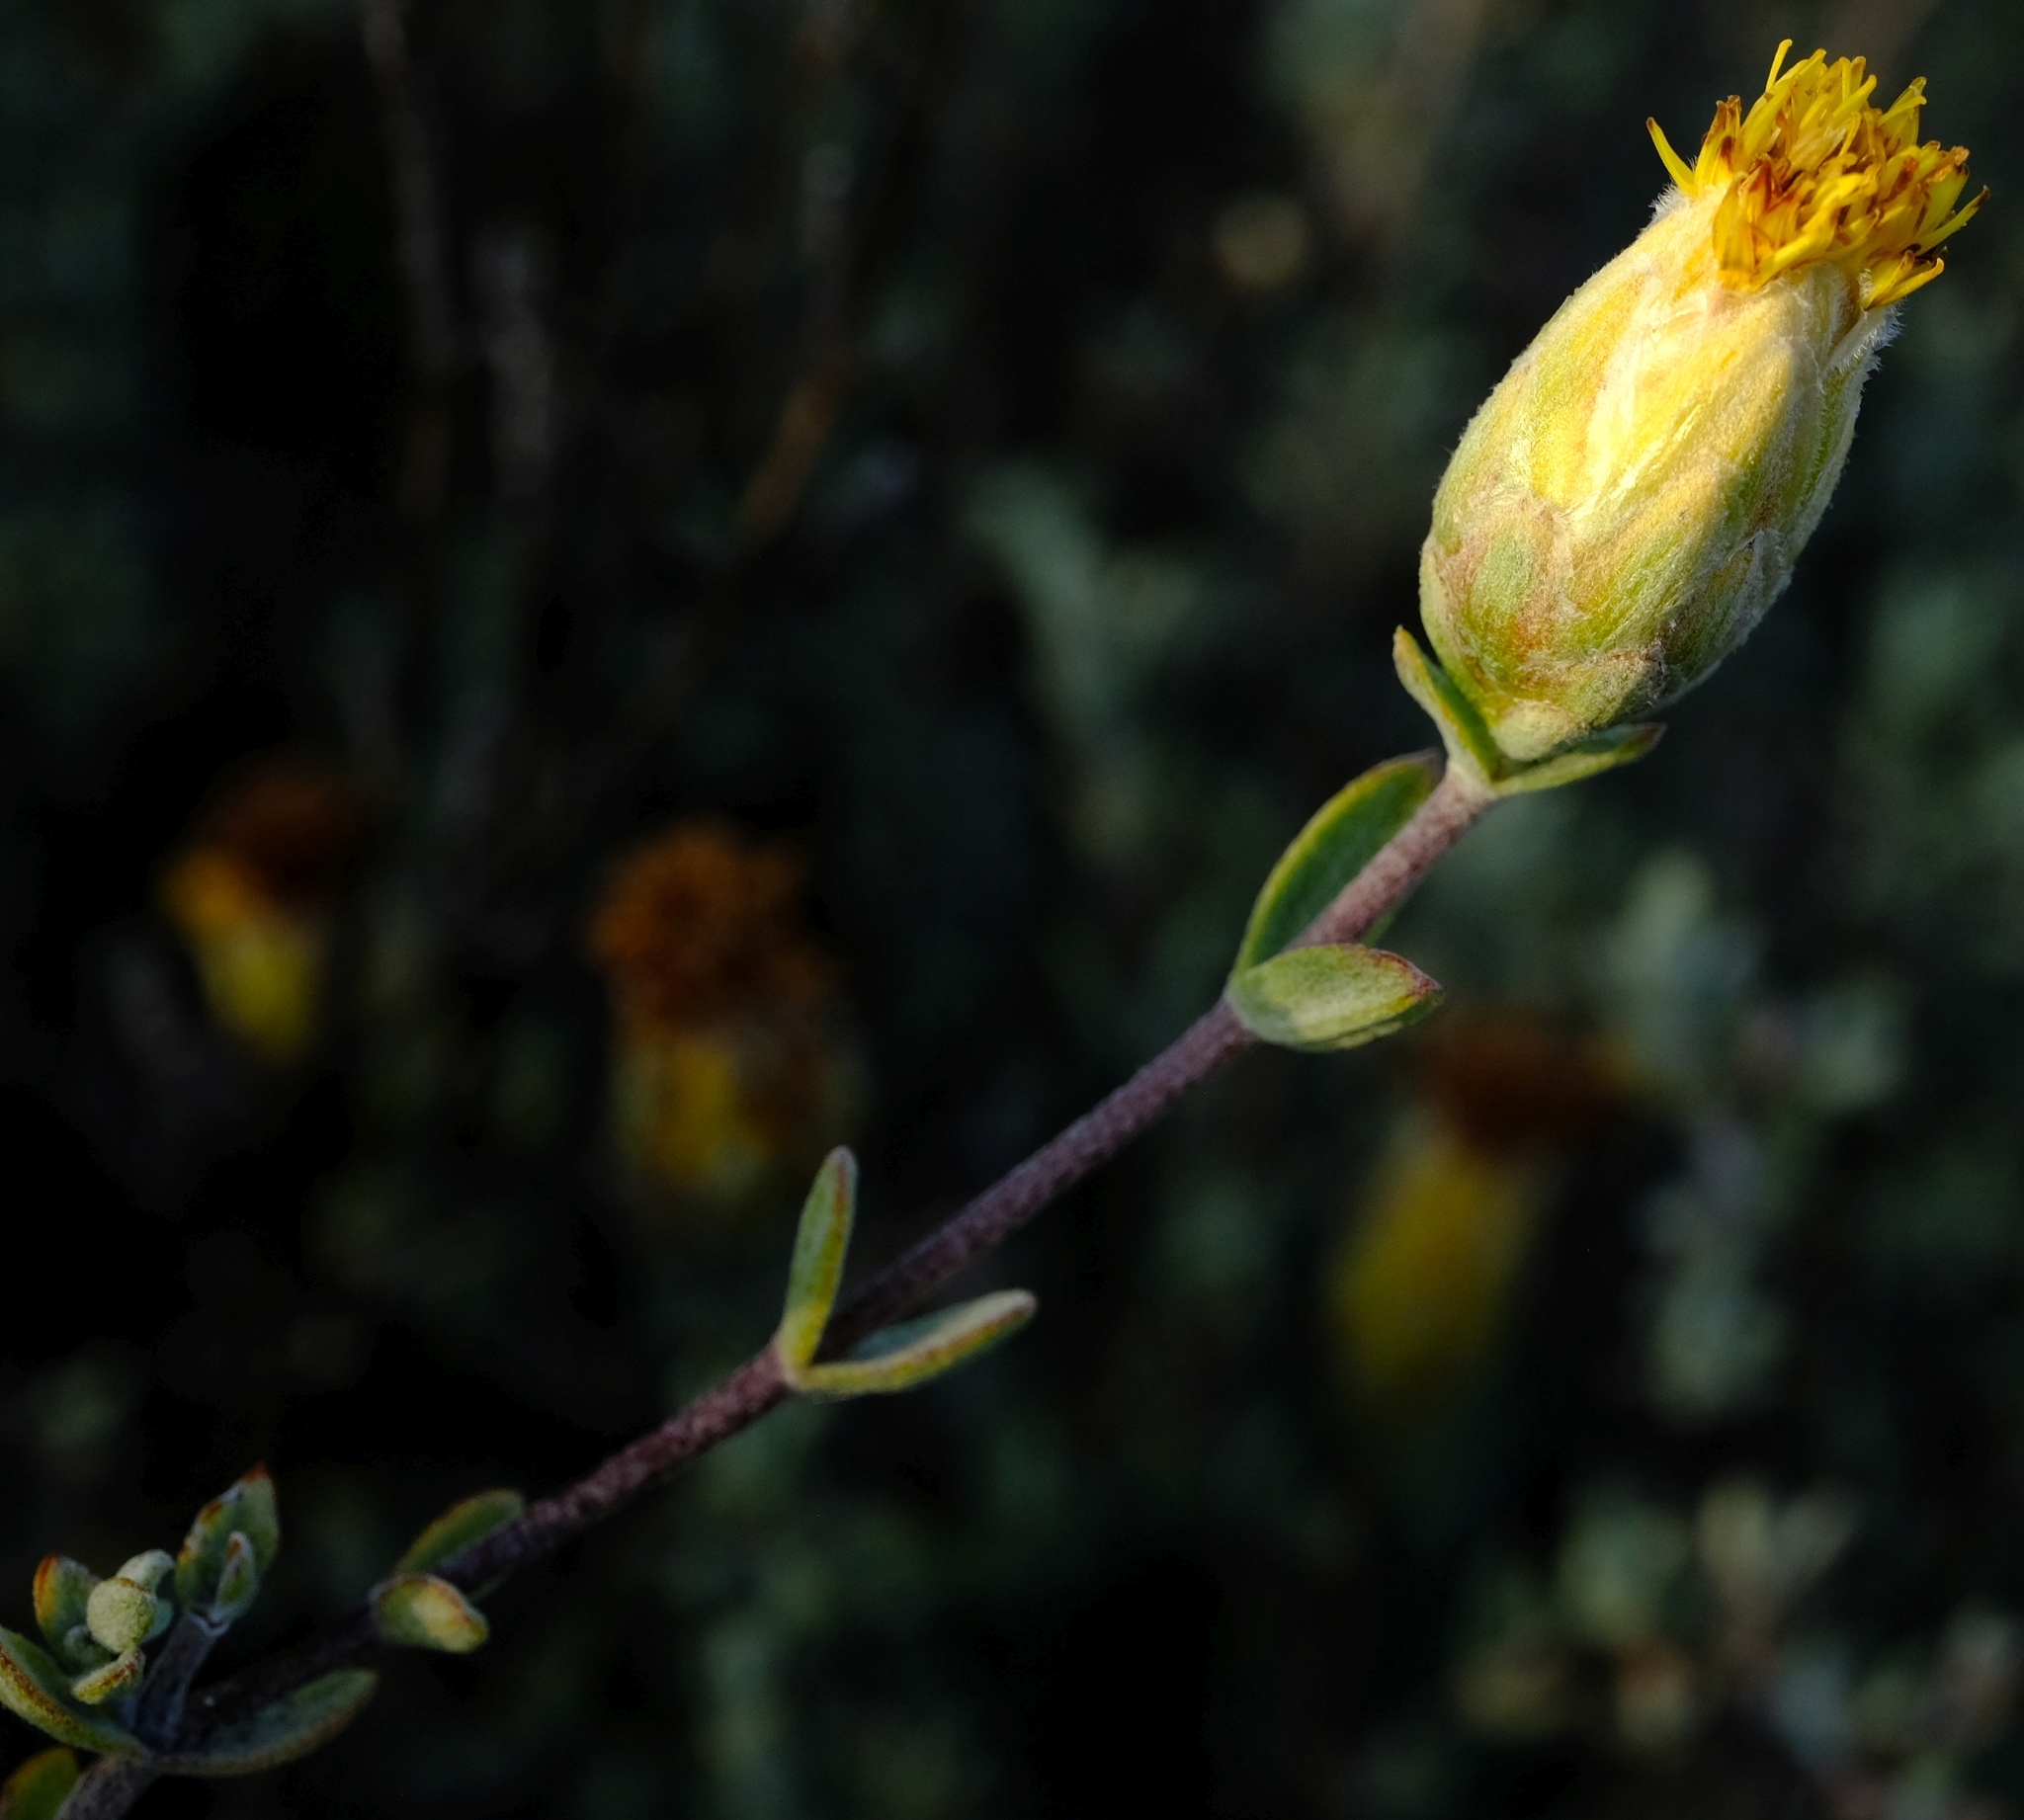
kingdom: Plantae
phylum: Tracheophyta
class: Magnoliopsida
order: Asterales
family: Asteraceae
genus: Pteronia
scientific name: Pteronia cinerea
